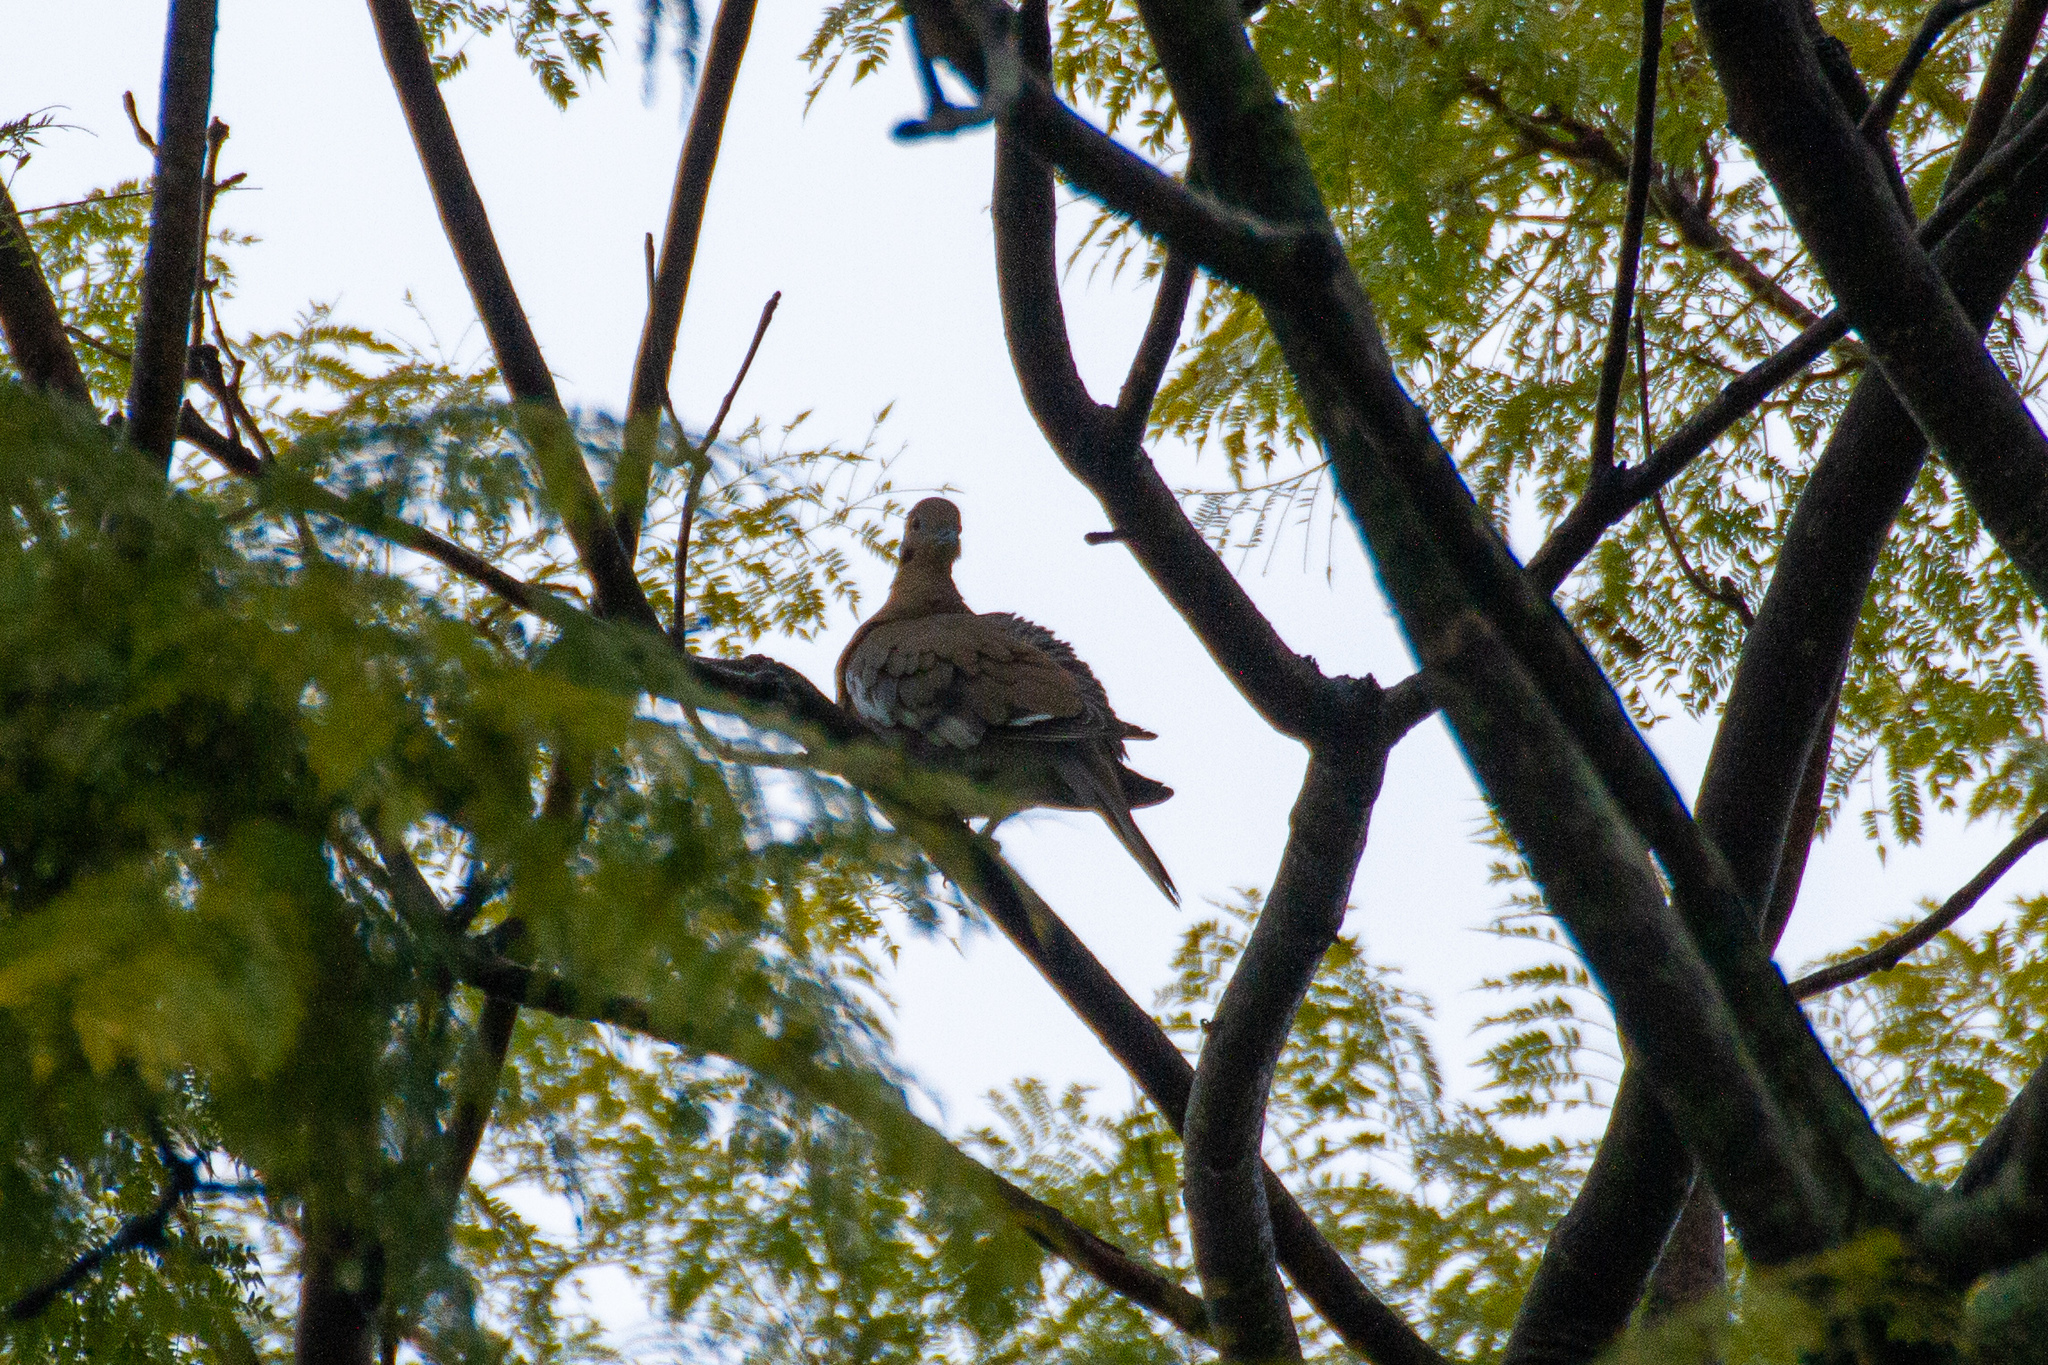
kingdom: Animalia
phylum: Chordata
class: Aves
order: Columbiformes
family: Columbidae
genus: Zenaida
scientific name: Zenaida asiatica
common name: White-winged dove
